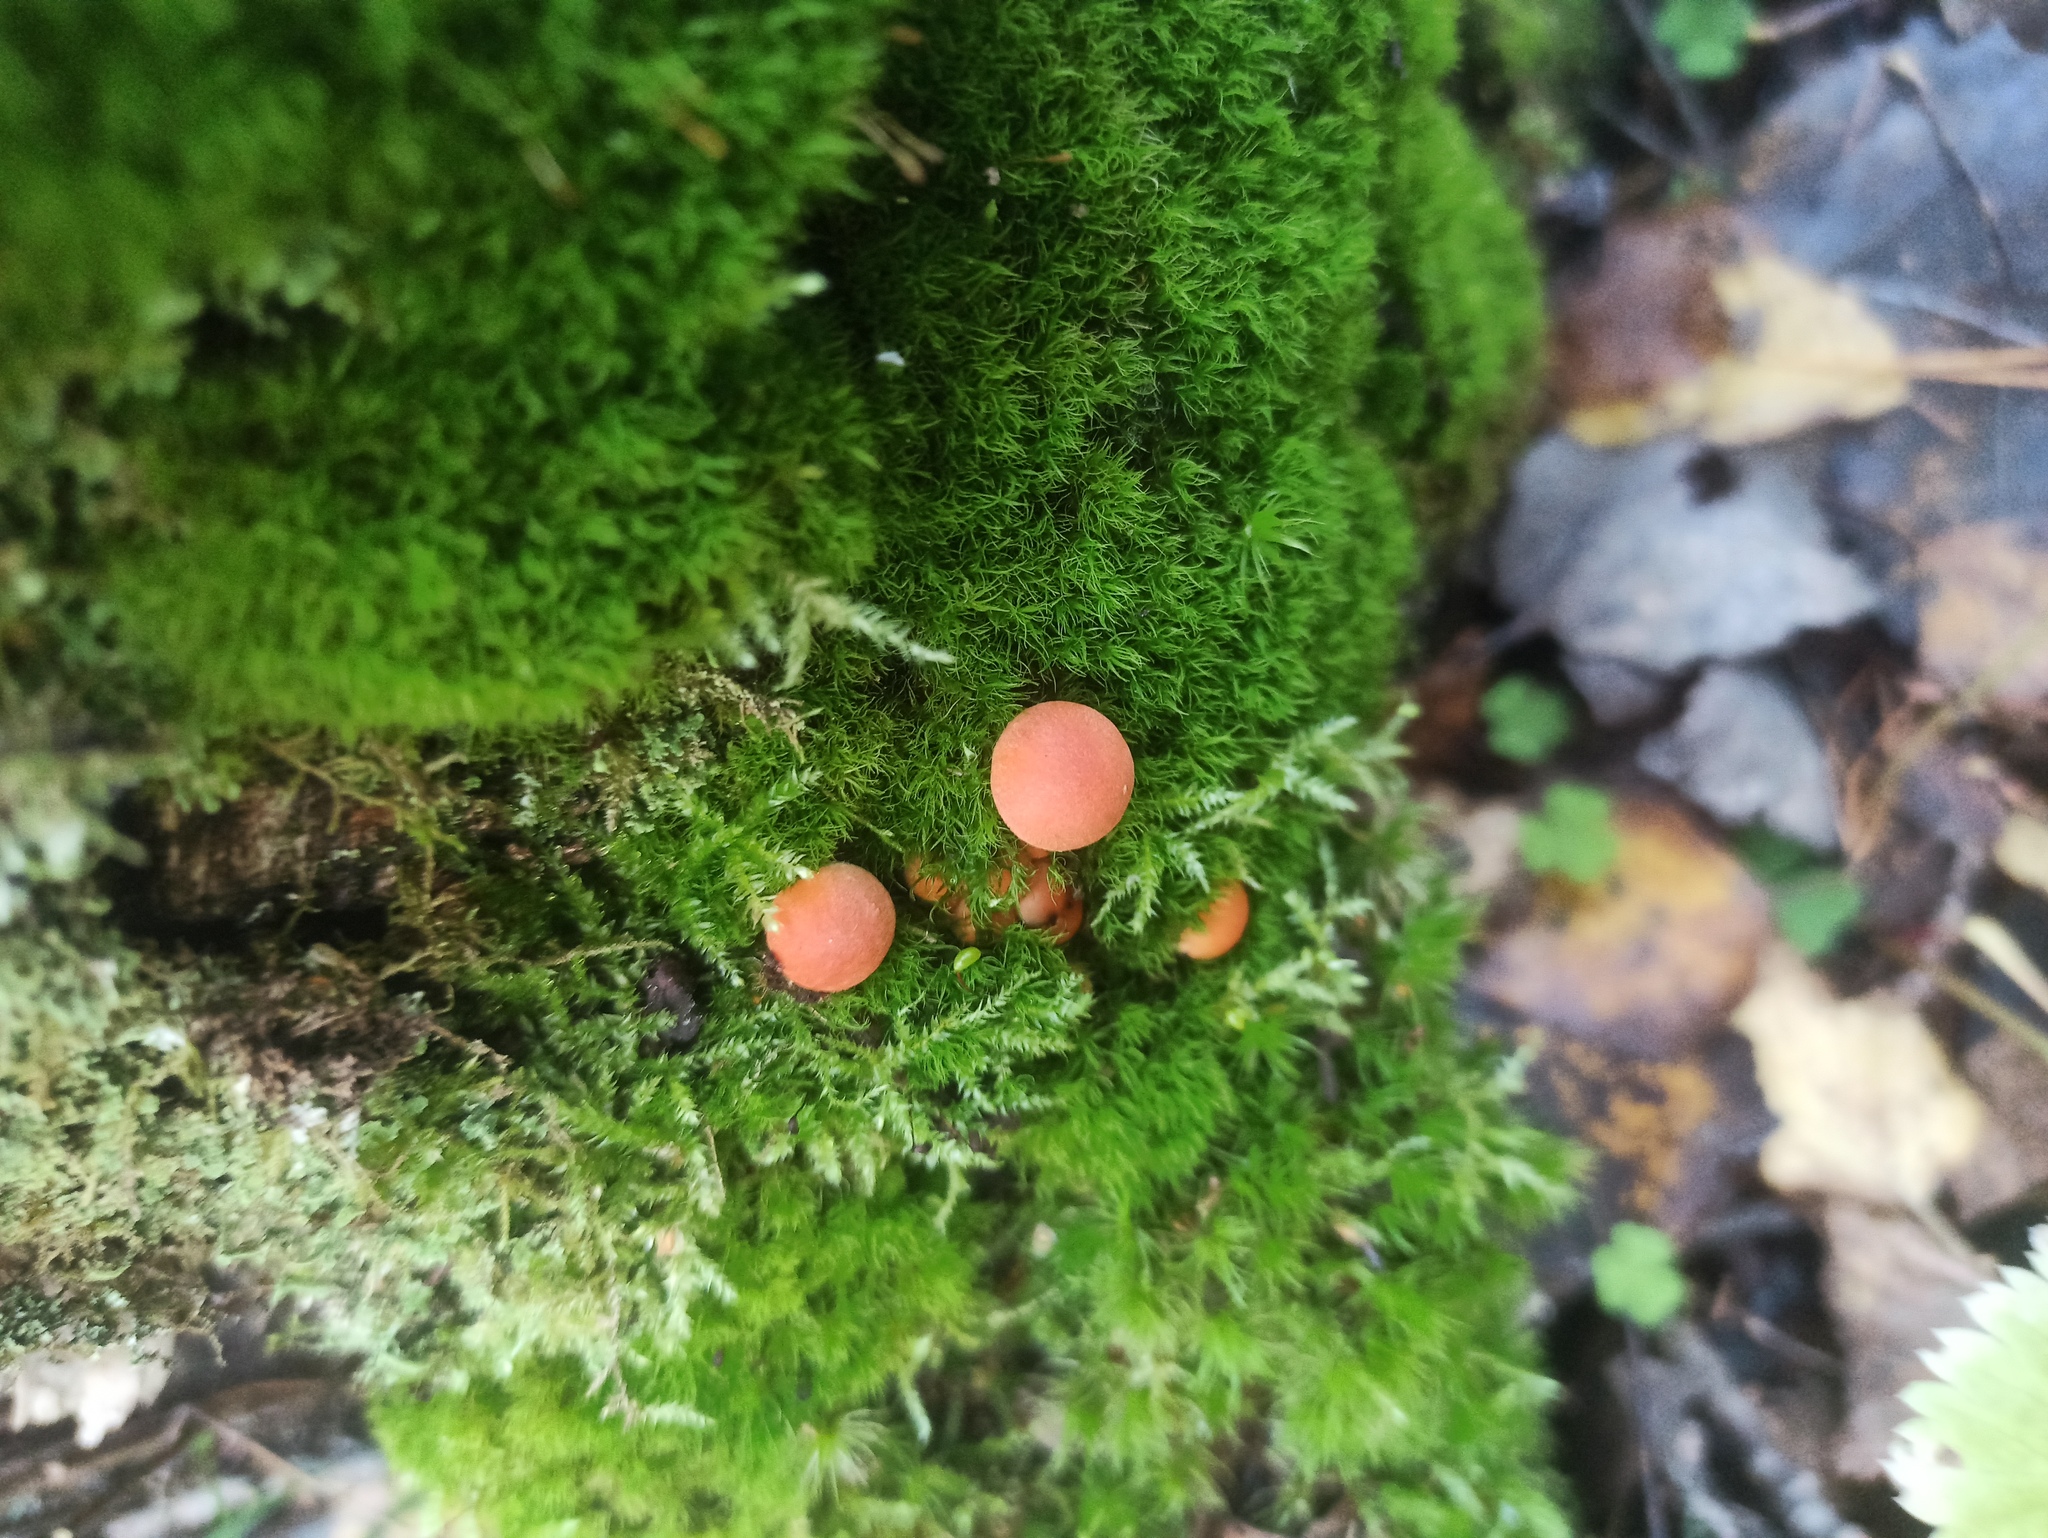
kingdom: Protozoa
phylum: Mycetozoa
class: Myxomycetes
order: Cribrariales
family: Tubiferaceae
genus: Lycogala
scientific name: Lycogala epidendrum
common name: Wolf's milk
